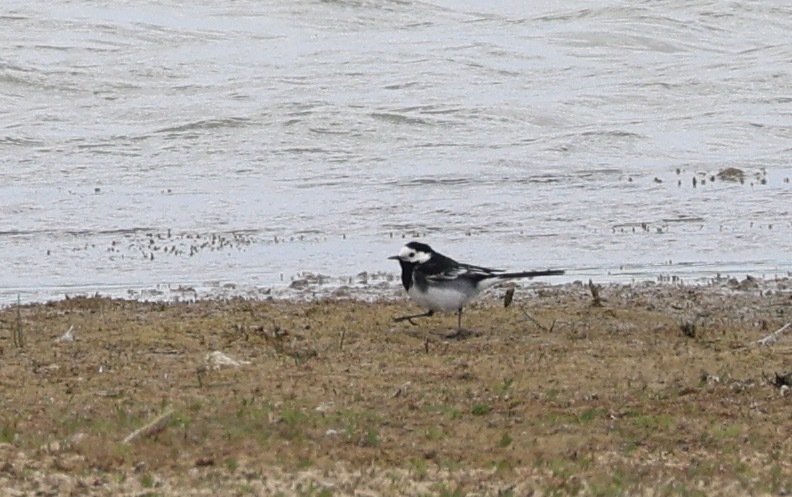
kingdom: Animalia
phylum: Chordata
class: Aves
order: Passeriformes
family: Motacillidae
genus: Motacilla
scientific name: Motacilla alba
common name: White wagtail
